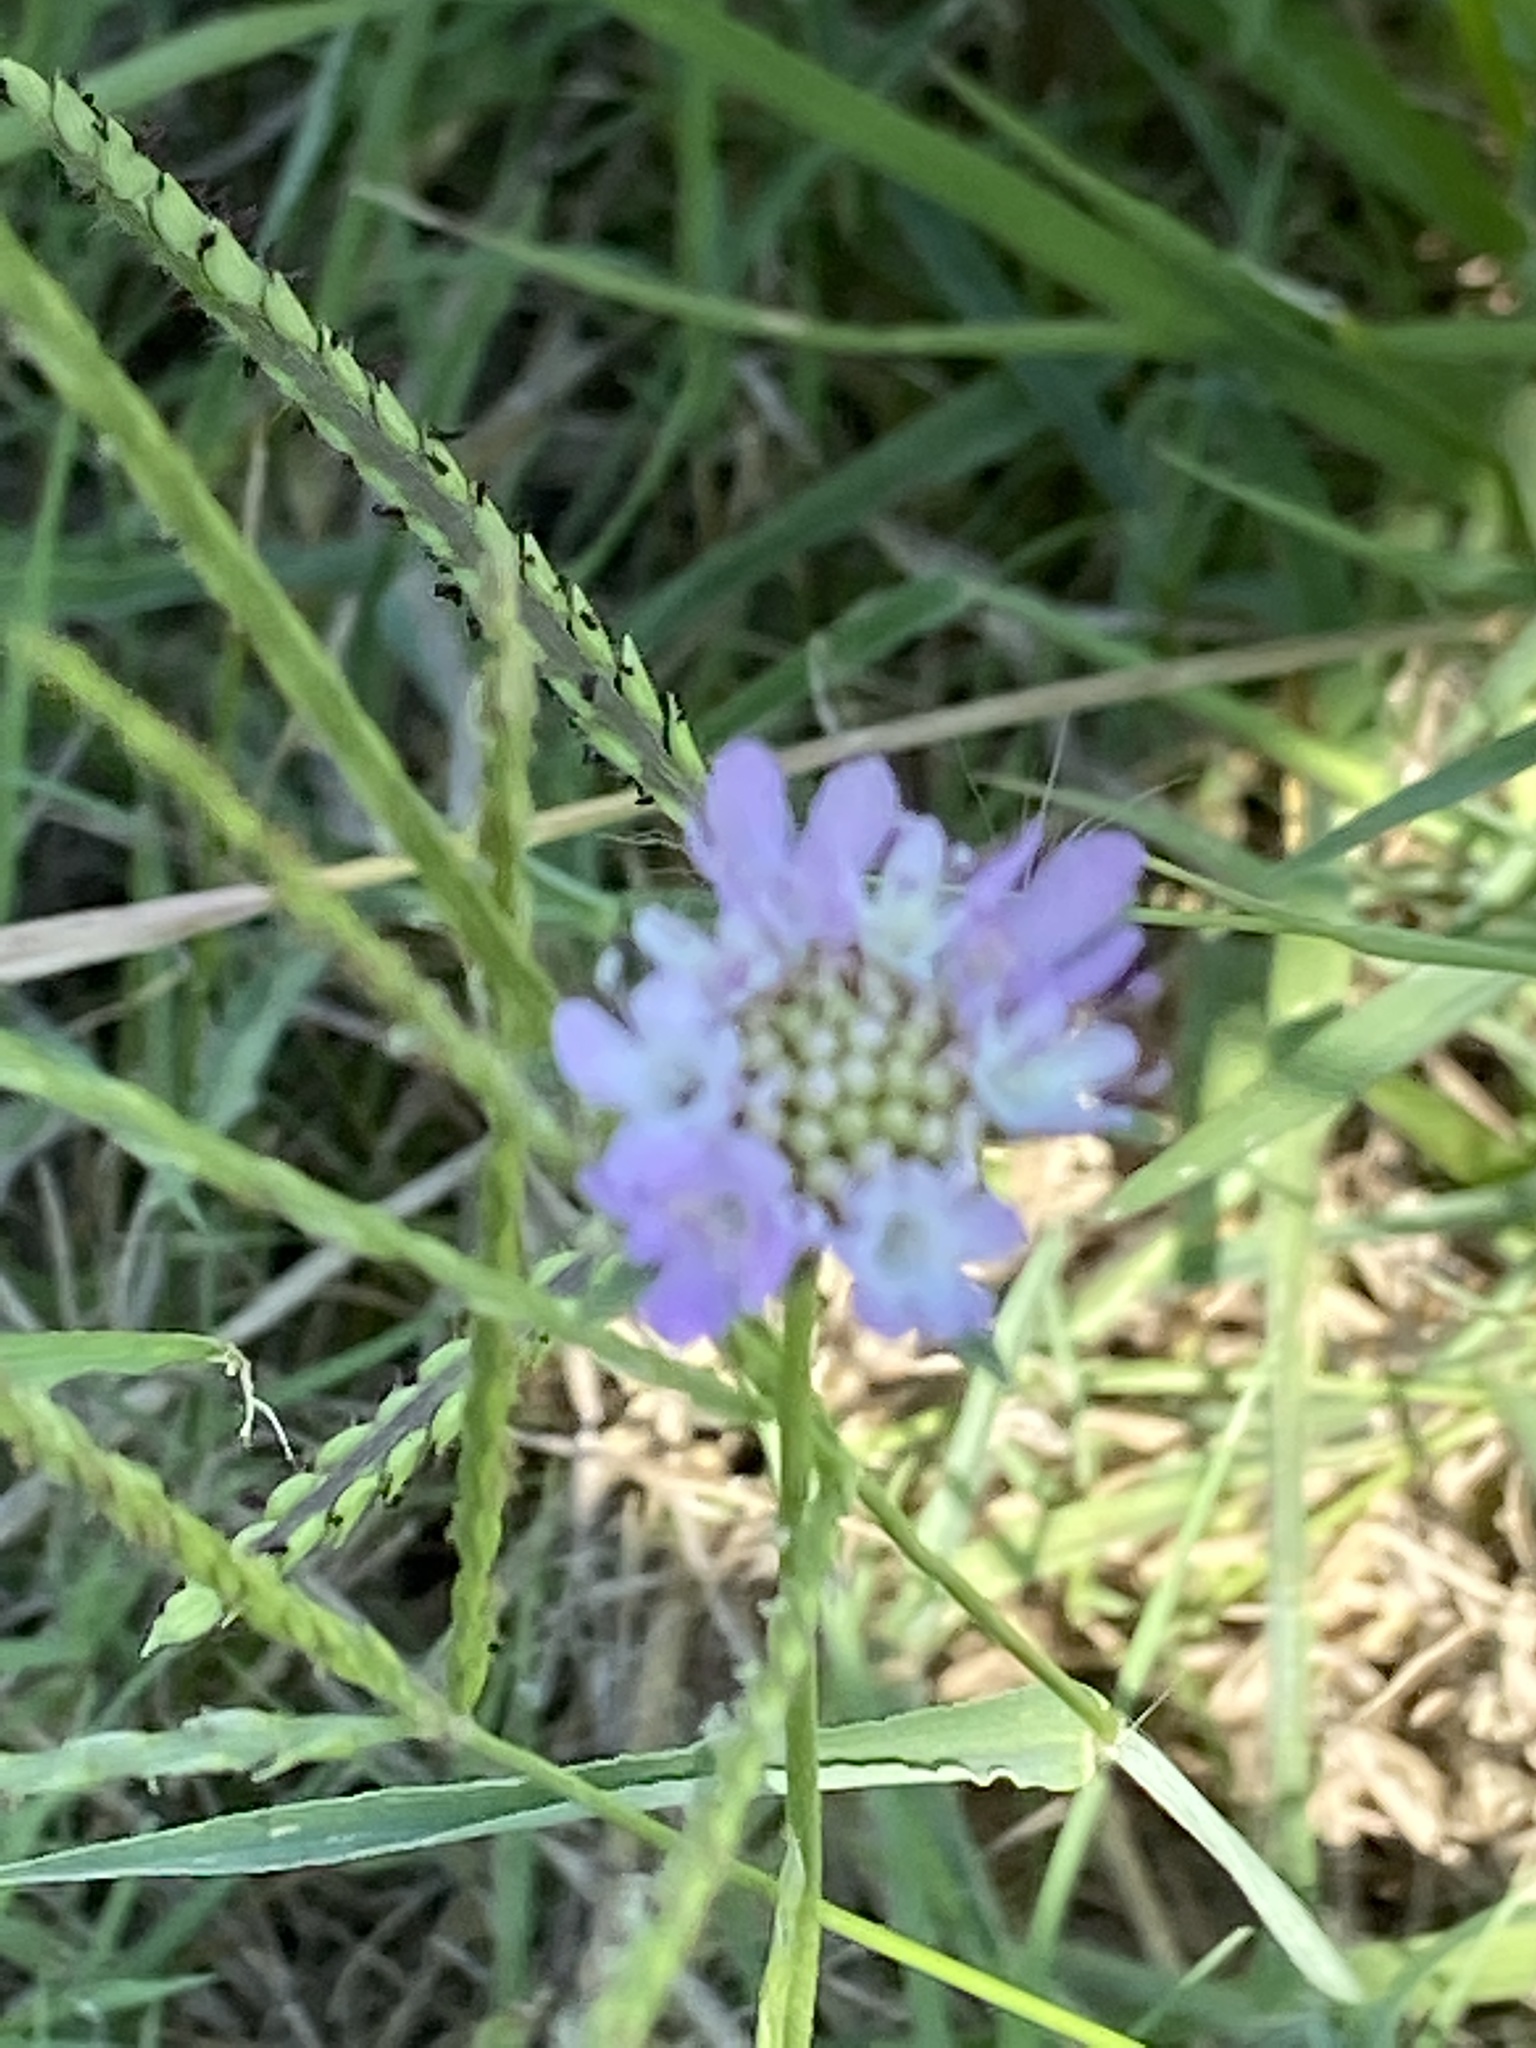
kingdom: Plantae
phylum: Tracheophyta
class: Magnoliopsida
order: Dipsacales
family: Caprifoliaceae
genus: Sixalix
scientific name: Sixalix atropurpurea
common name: Sweet scabious
